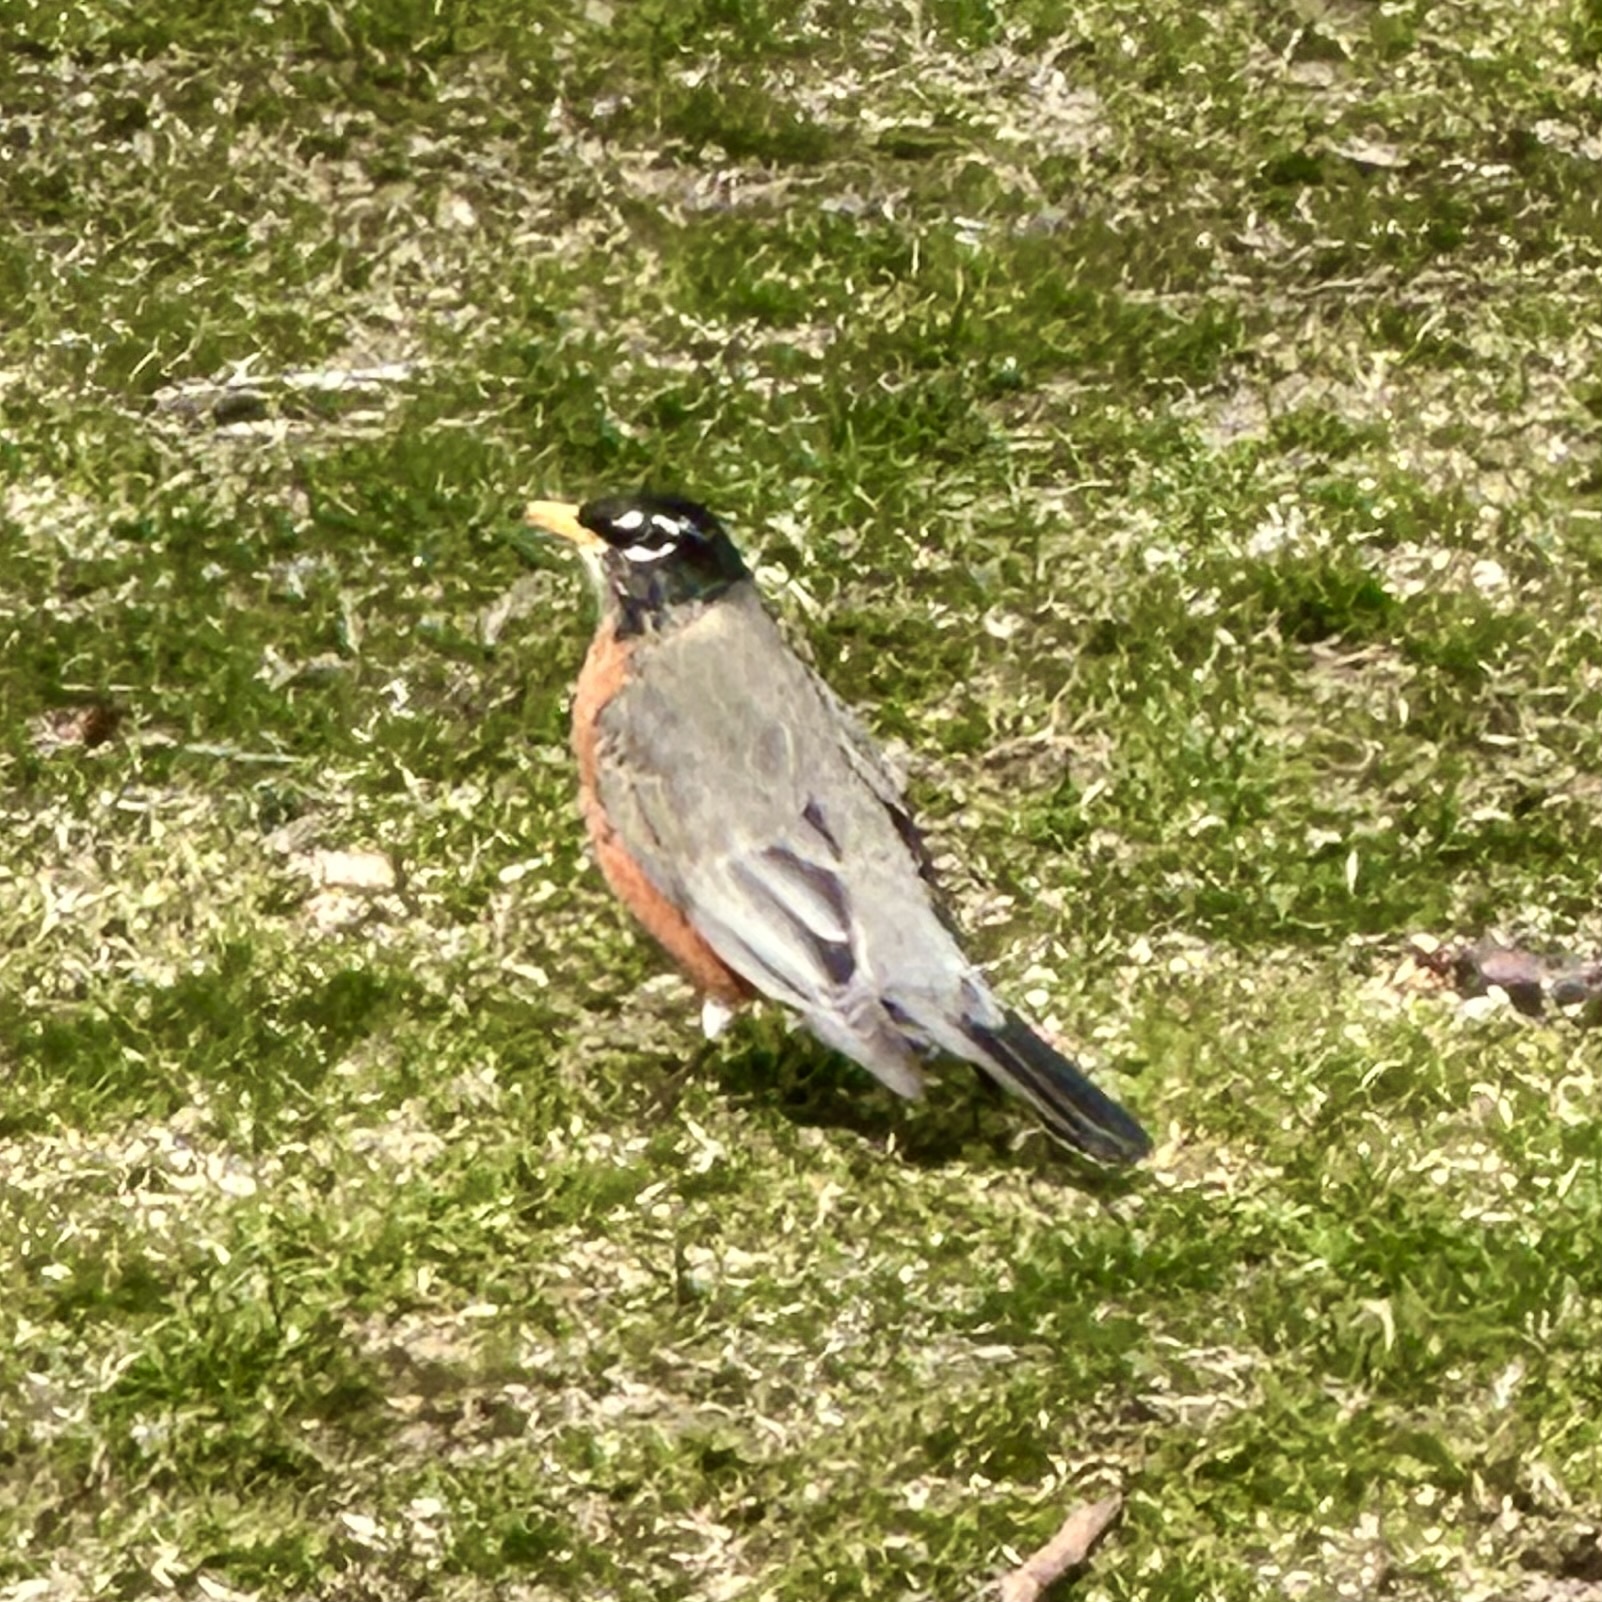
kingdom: Animalia
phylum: Chordata
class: Aves
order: Passeriformes
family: Turdidae
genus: Turdus
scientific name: Turdus migratorius
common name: American robin
